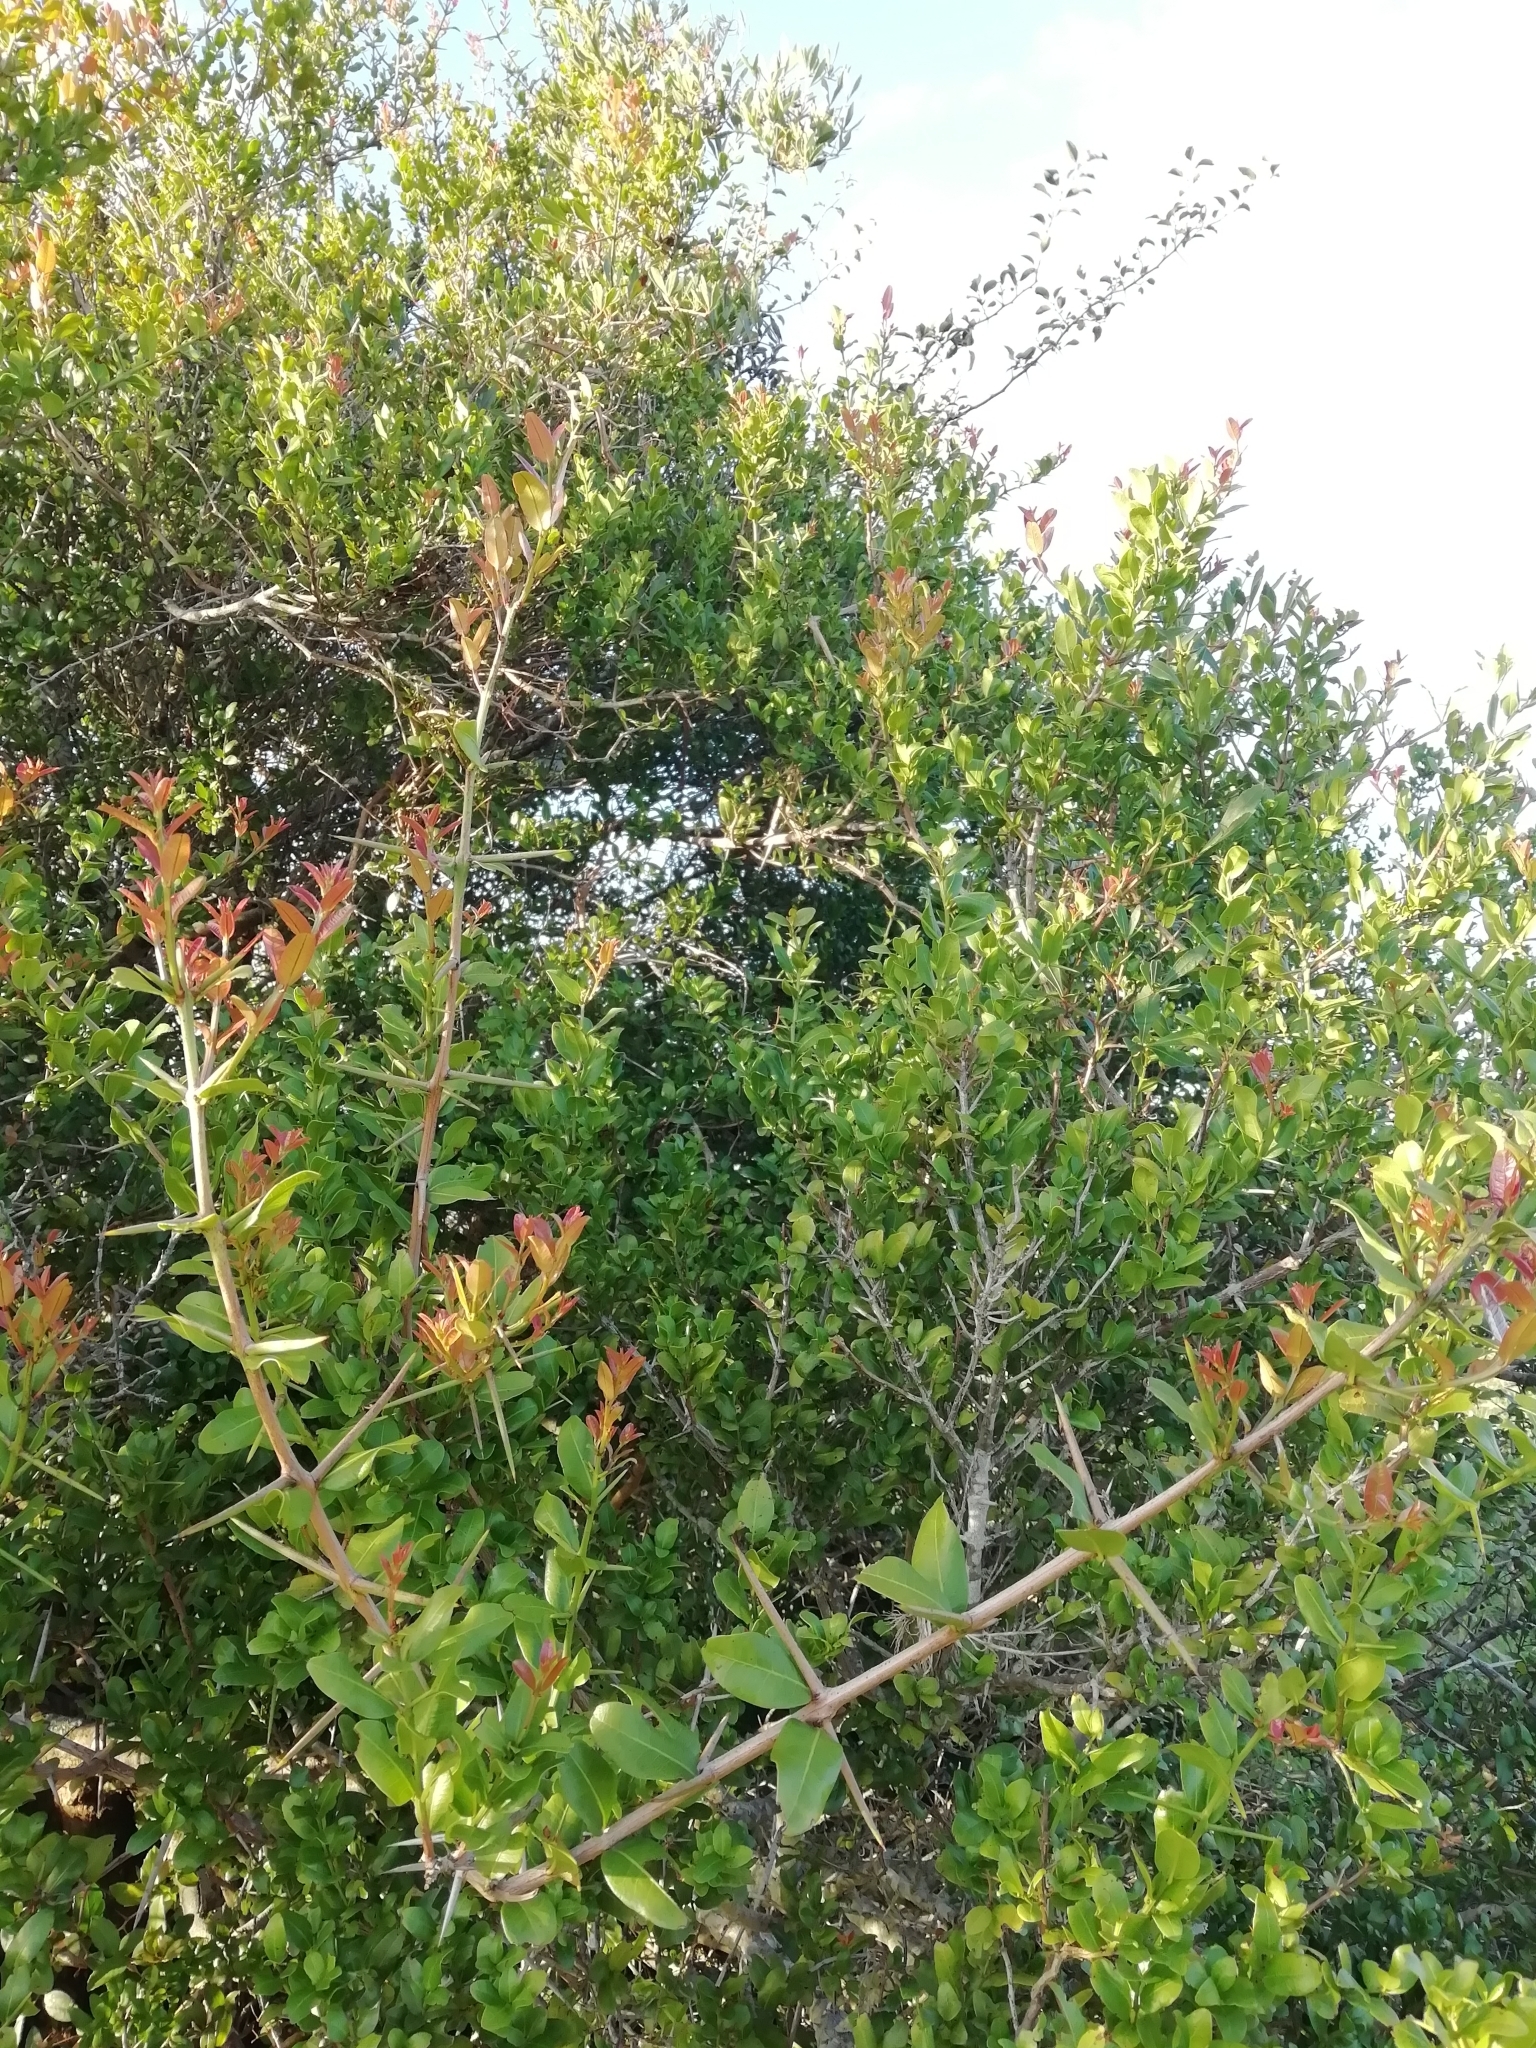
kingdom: Plantae
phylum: Tracheophyta
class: Magnoliopsida
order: Rosales
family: Rhamnaceae
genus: Scutia
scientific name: Scutia buxifolia
